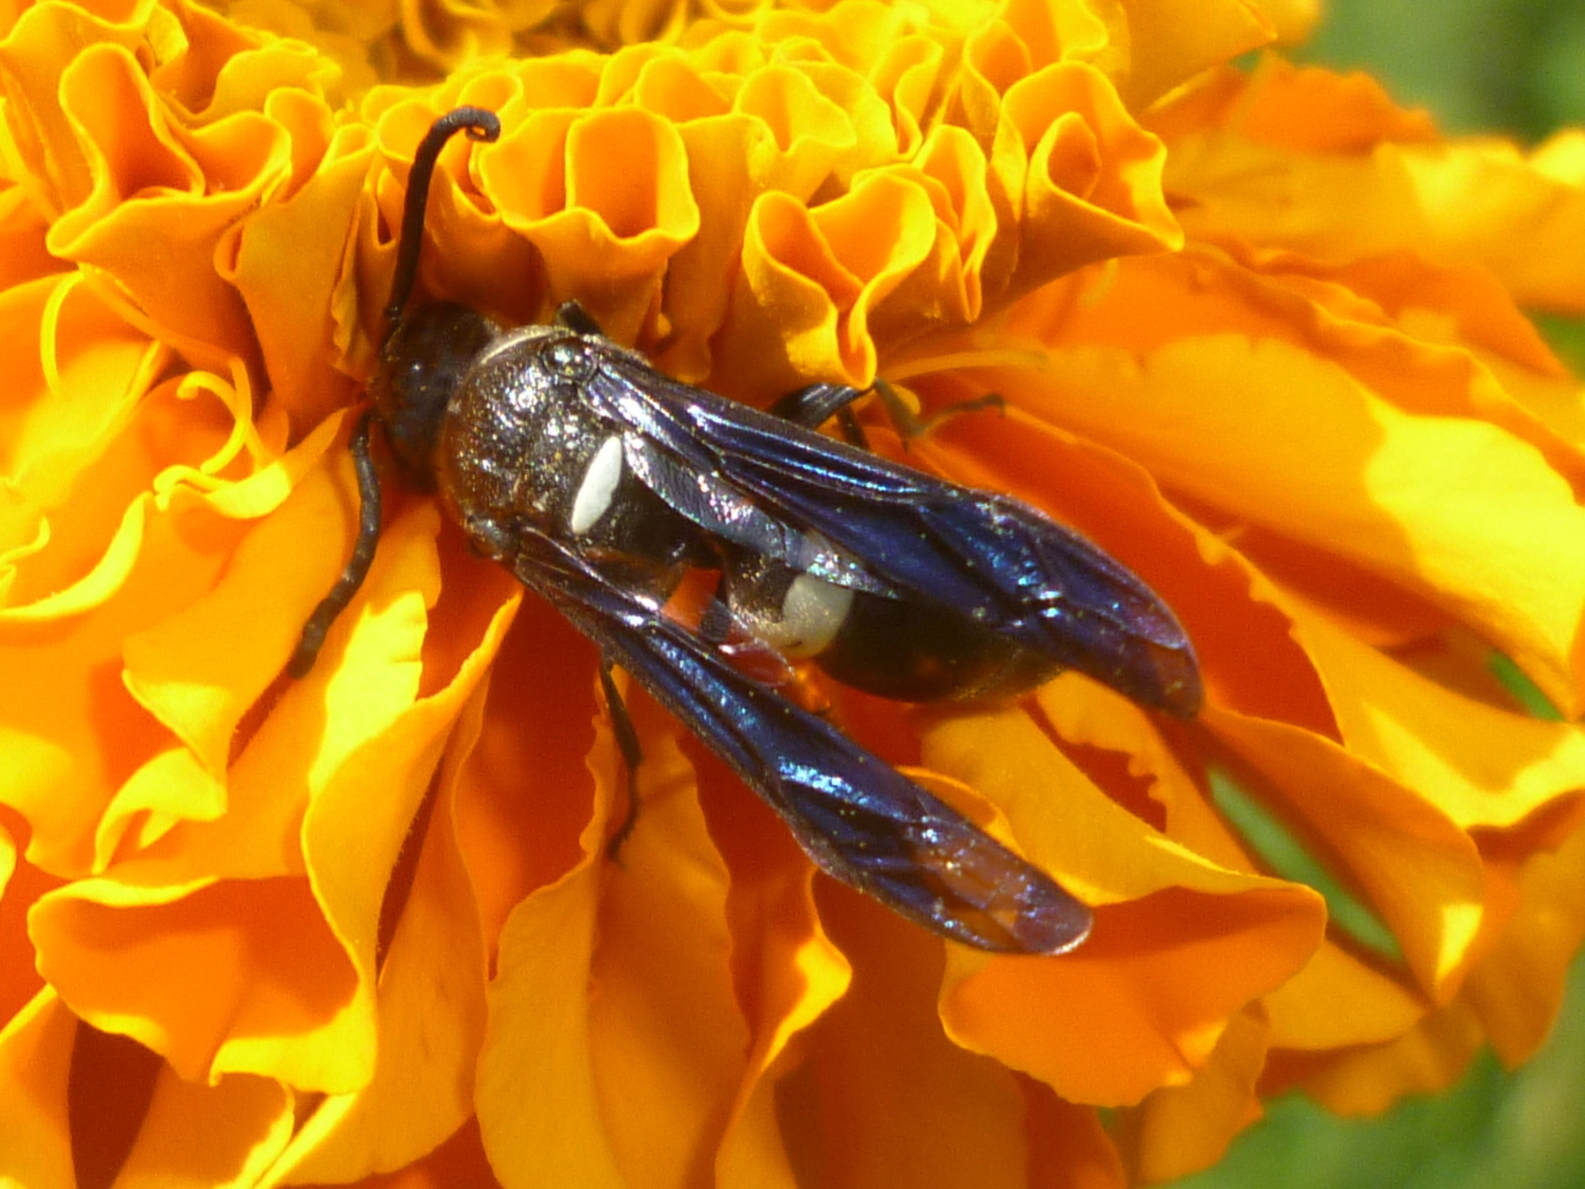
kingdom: Animalia
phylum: Arthropoda
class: Insecta
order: Hymenoptera
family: Eumenidae
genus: Monobia
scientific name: Monobia quadridens
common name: Four-toothed mason wasp
